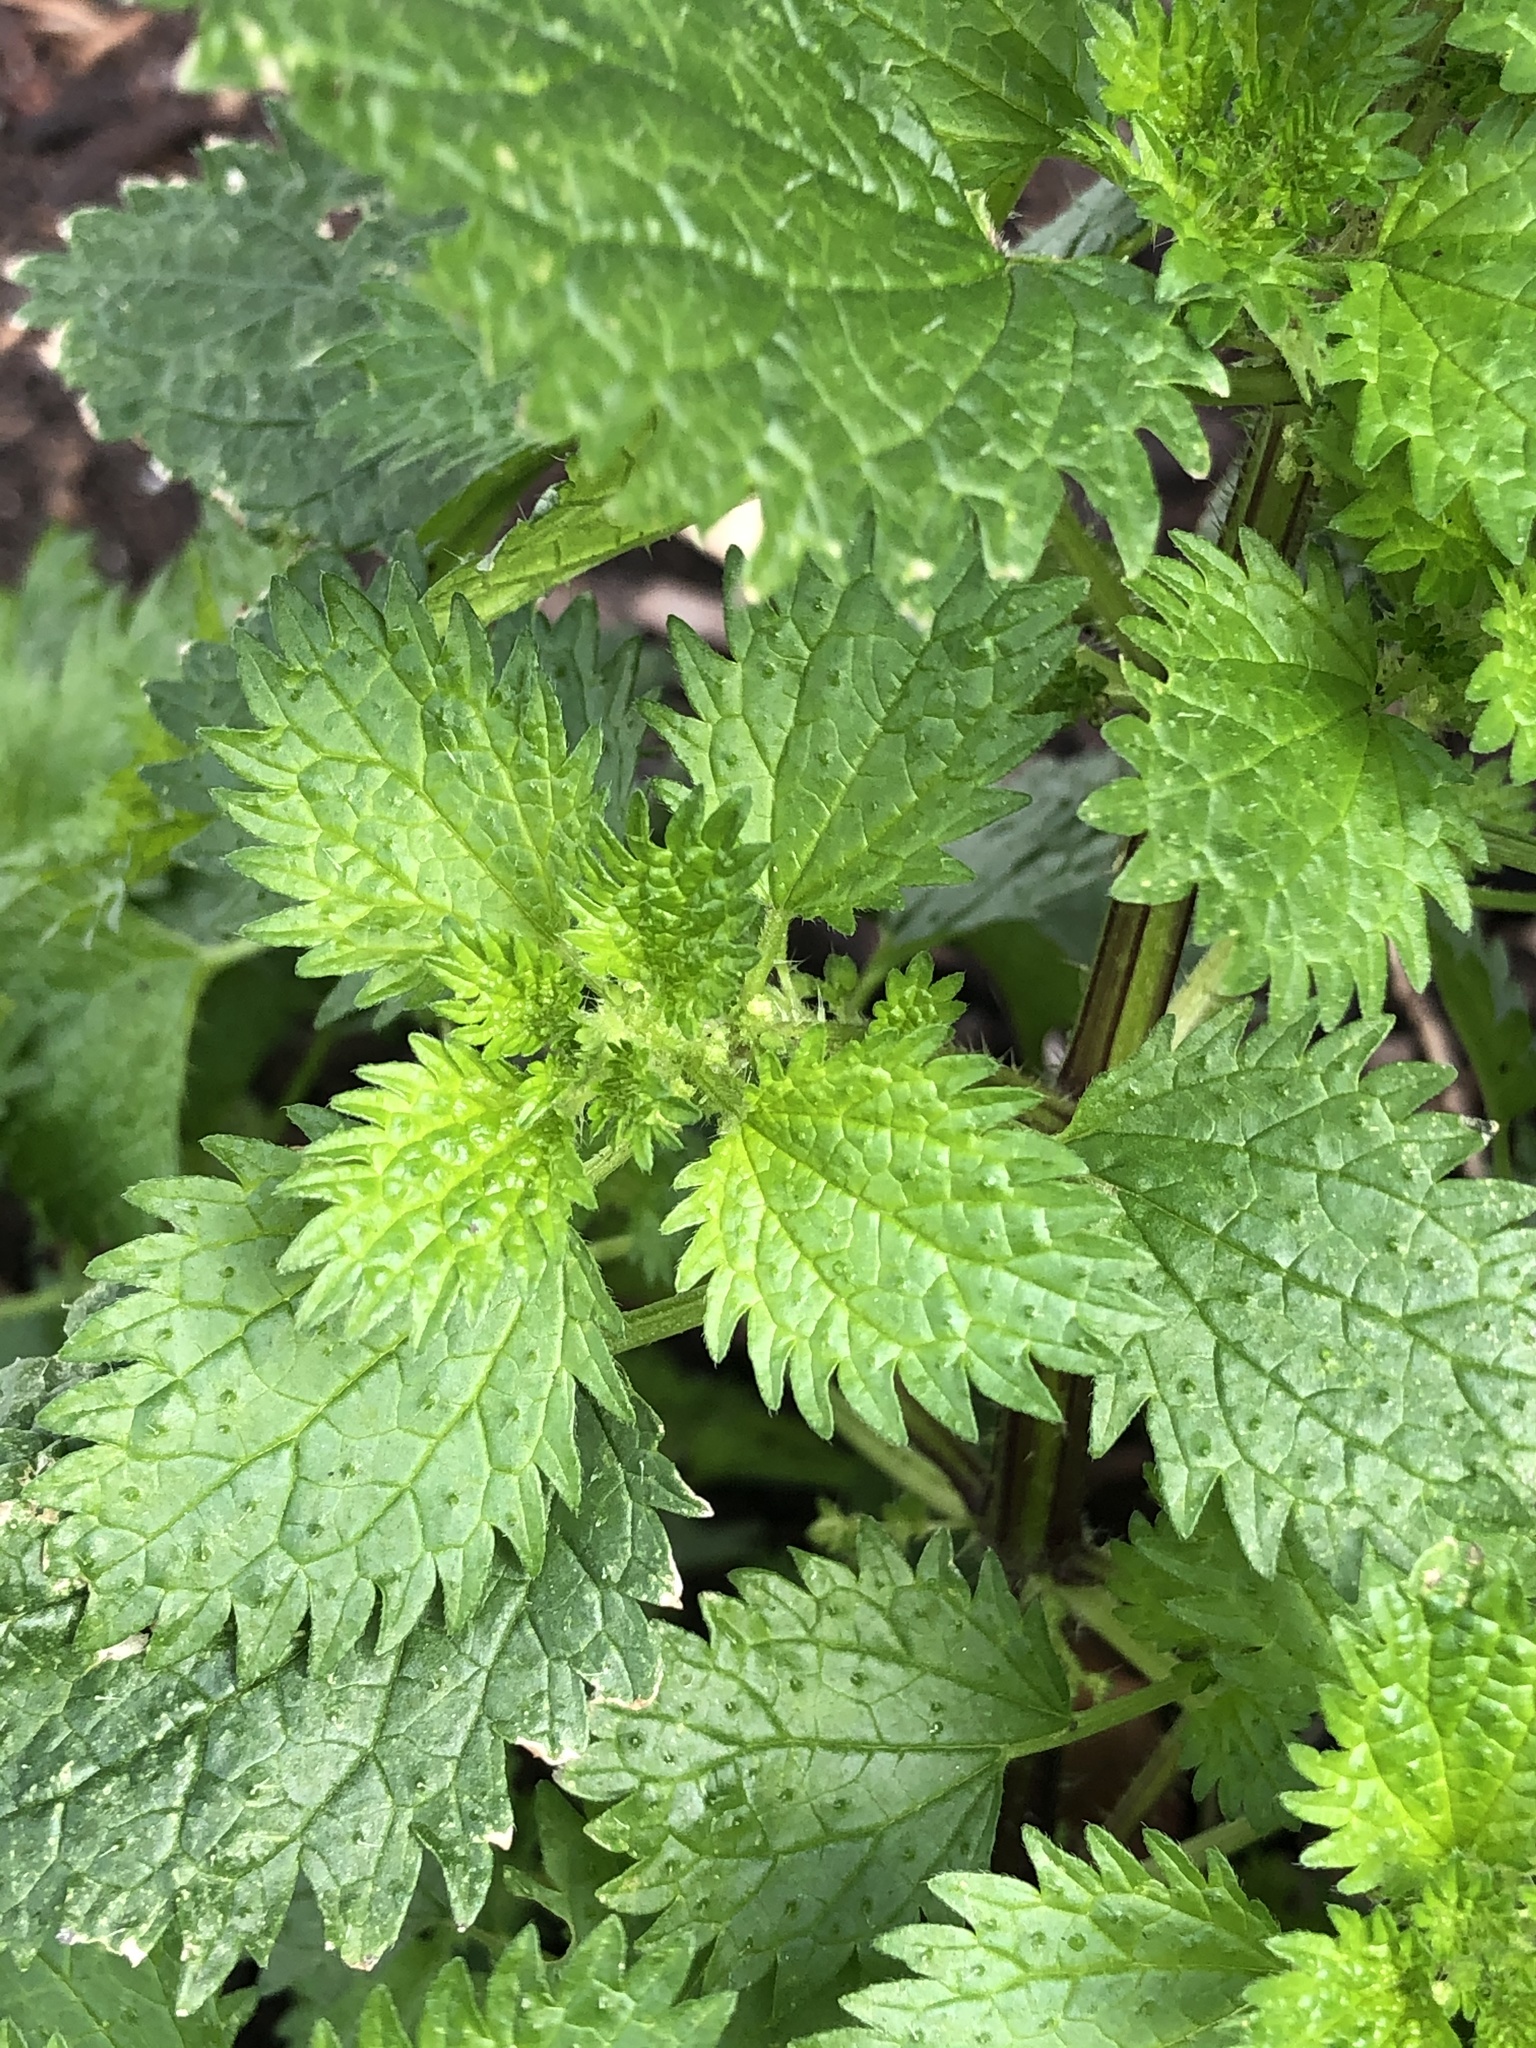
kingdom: Plantae
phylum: Tracheophyta
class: Magnoliopsida
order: Rosales
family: Urticaceae
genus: Urtica
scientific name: Urtica urens
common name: Dwarf nettle
